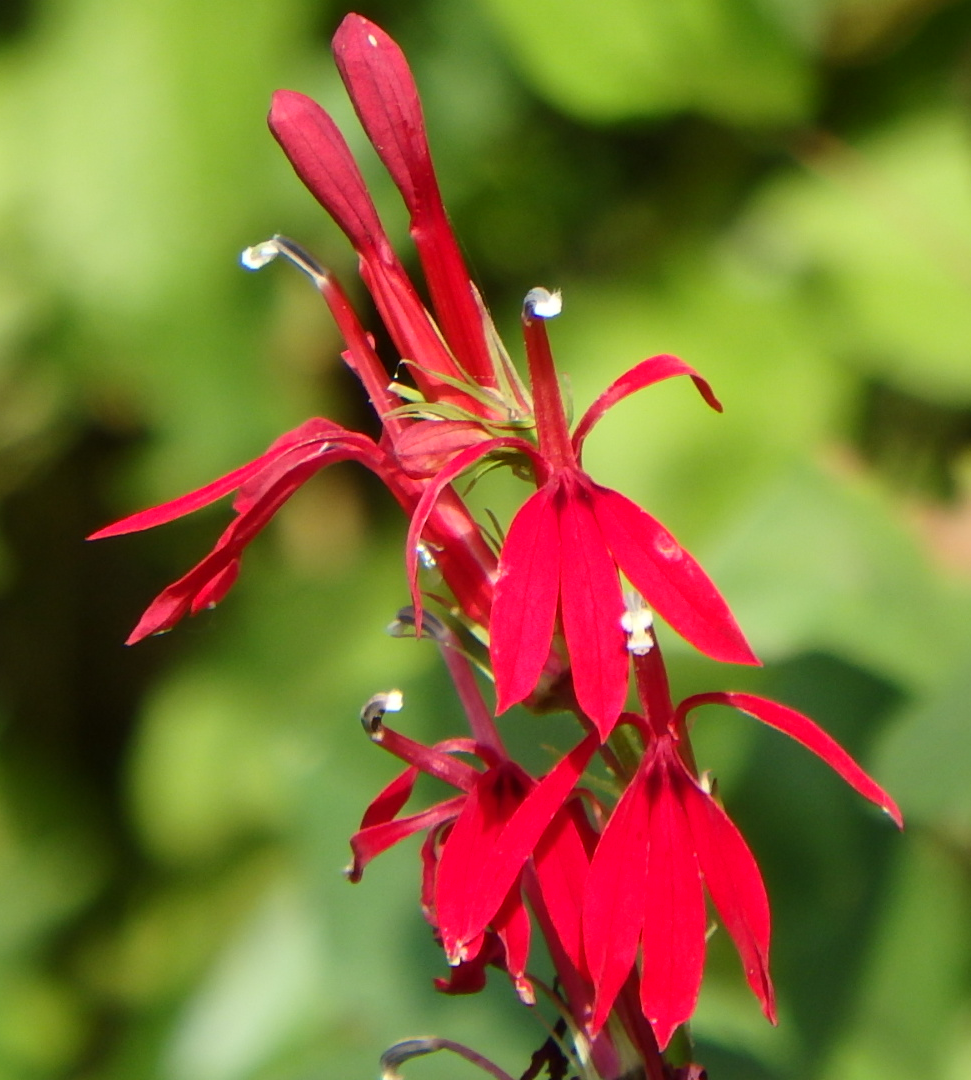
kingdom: Plantae
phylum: Tracheophyta
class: Magnoliopsida
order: Asterales
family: Campanulaceae
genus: Lobelia
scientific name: Lobelia cardinalis
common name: Cardinal flower
